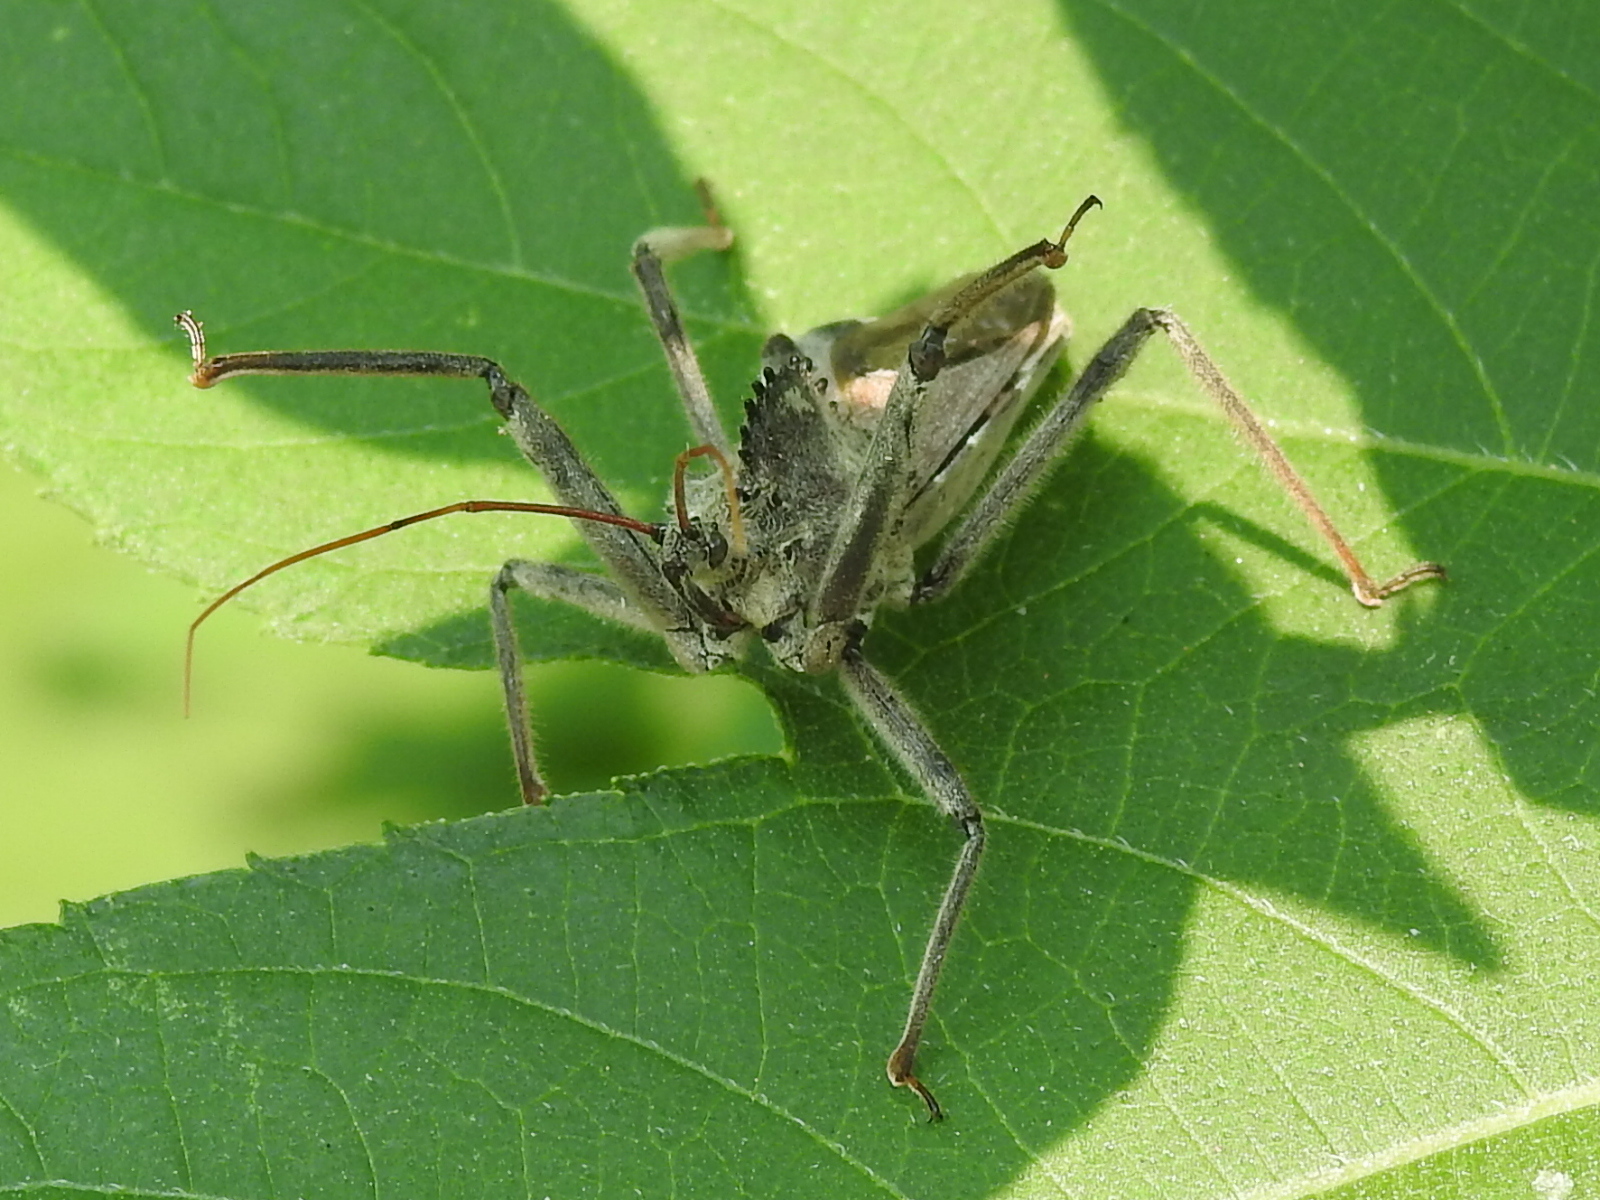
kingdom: Animalia
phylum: Arthropoda
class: Insecta
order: Hemiptera
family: Reduviidae
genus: Arilus
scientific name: Arilus cristatus
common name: North american wheel bug
